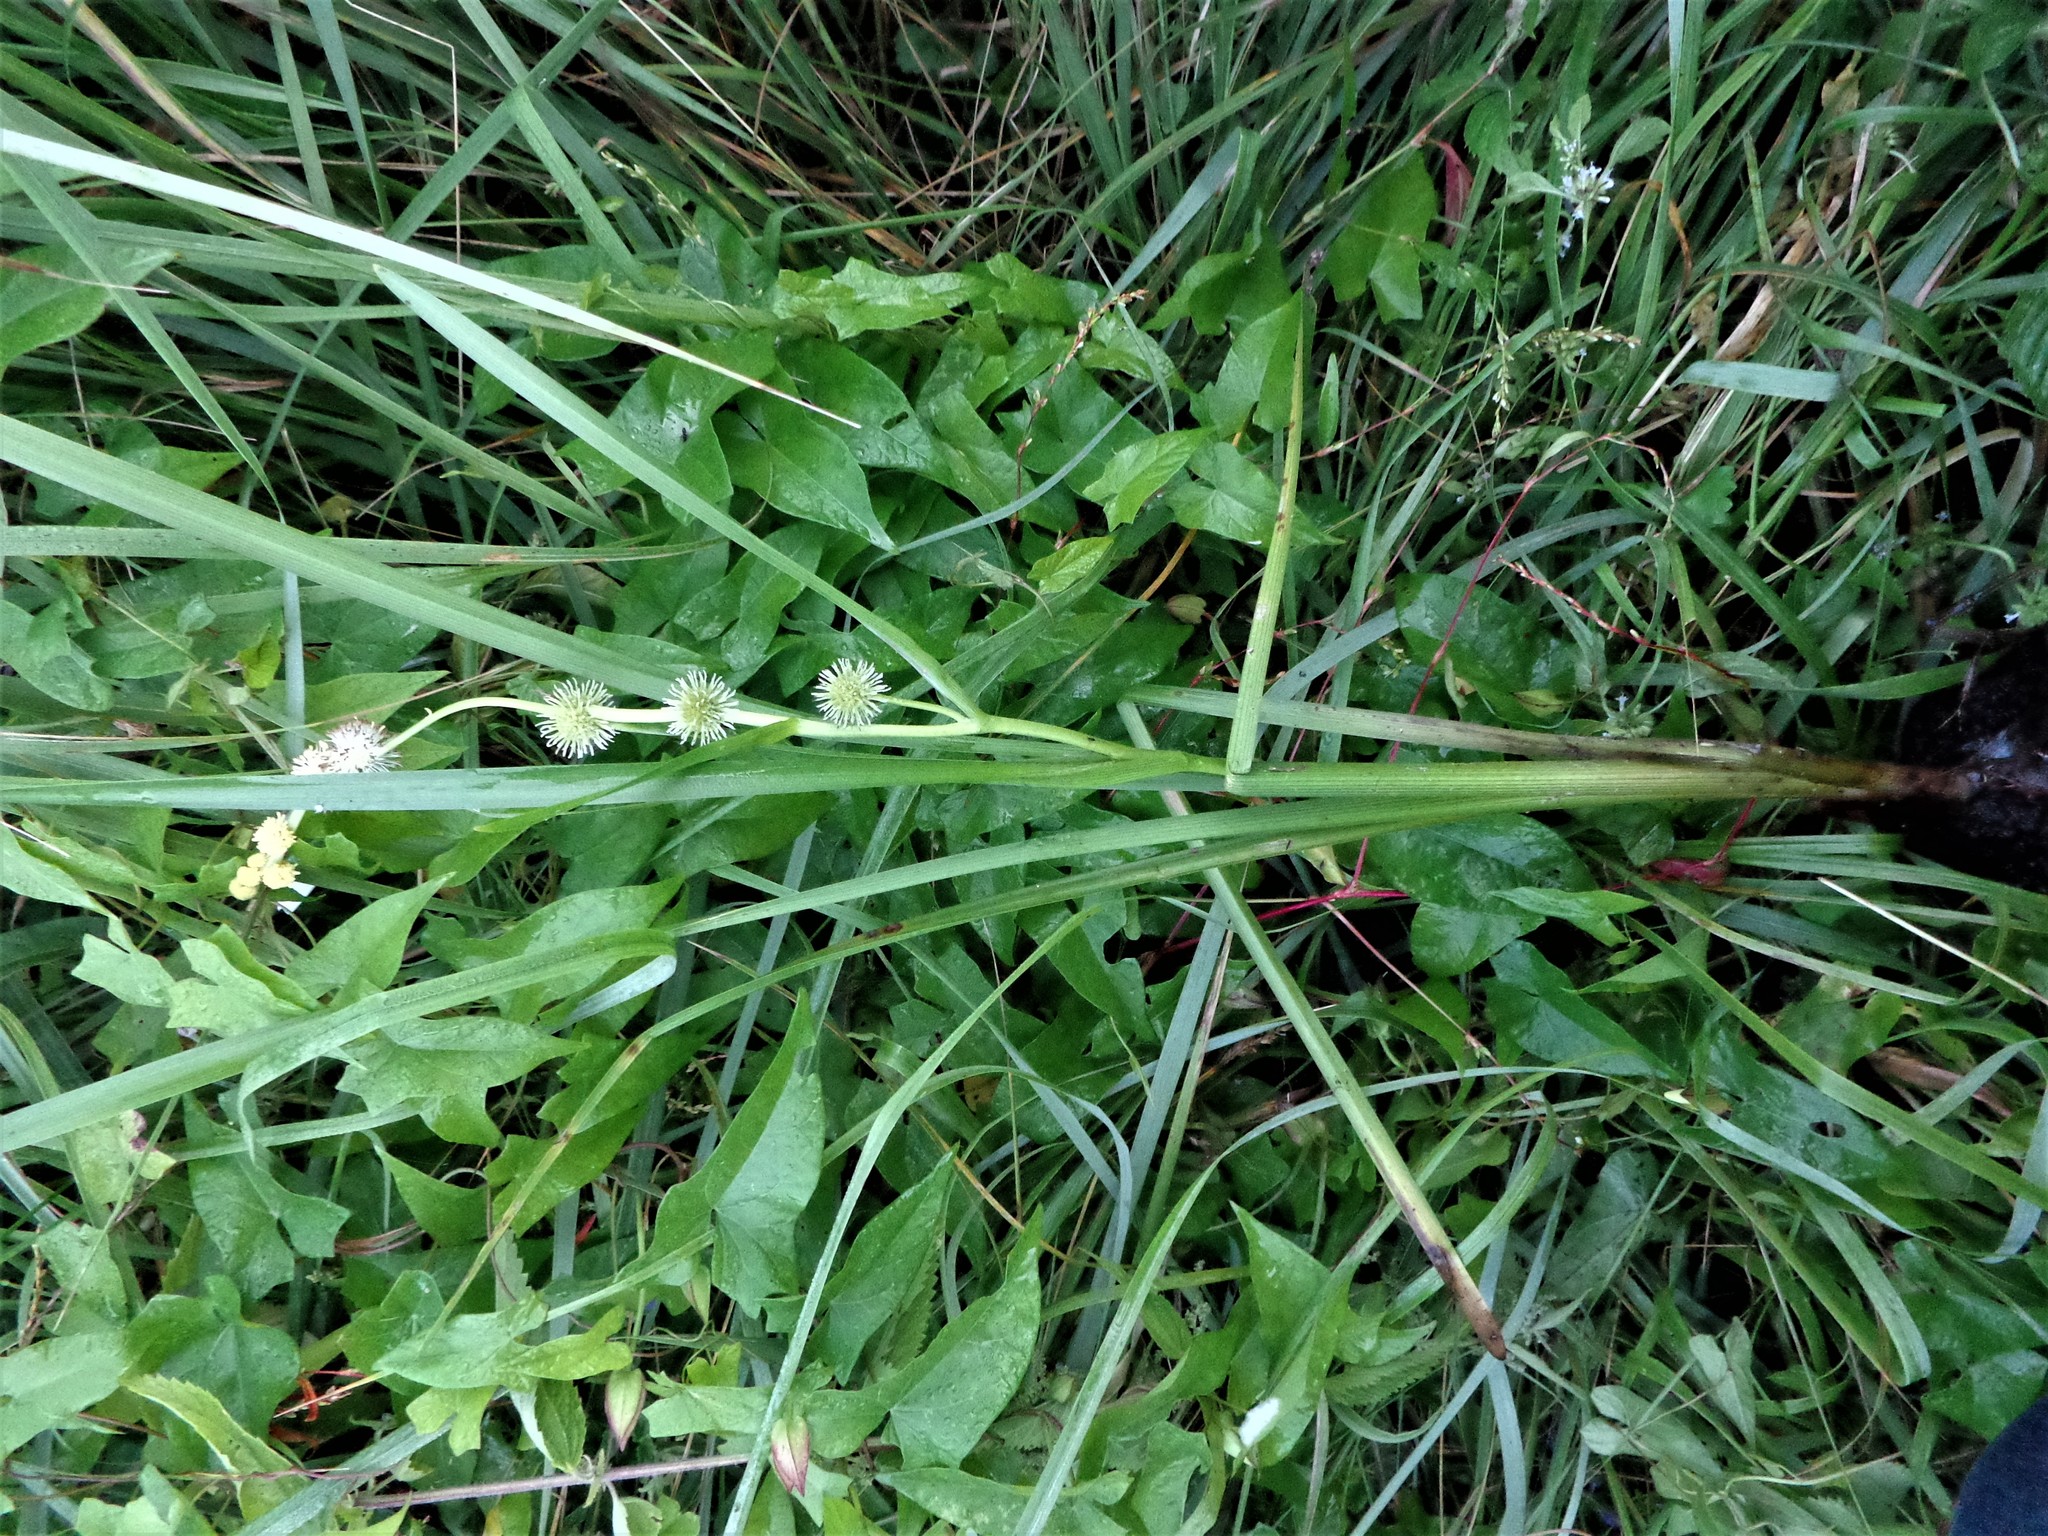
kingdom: Plantae
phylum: Tracheophyta
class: Liliopsida
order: Poales
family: Typhaceae
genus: Sparganium
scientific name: Sparganium emersum
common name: Unbranched bur-reed
